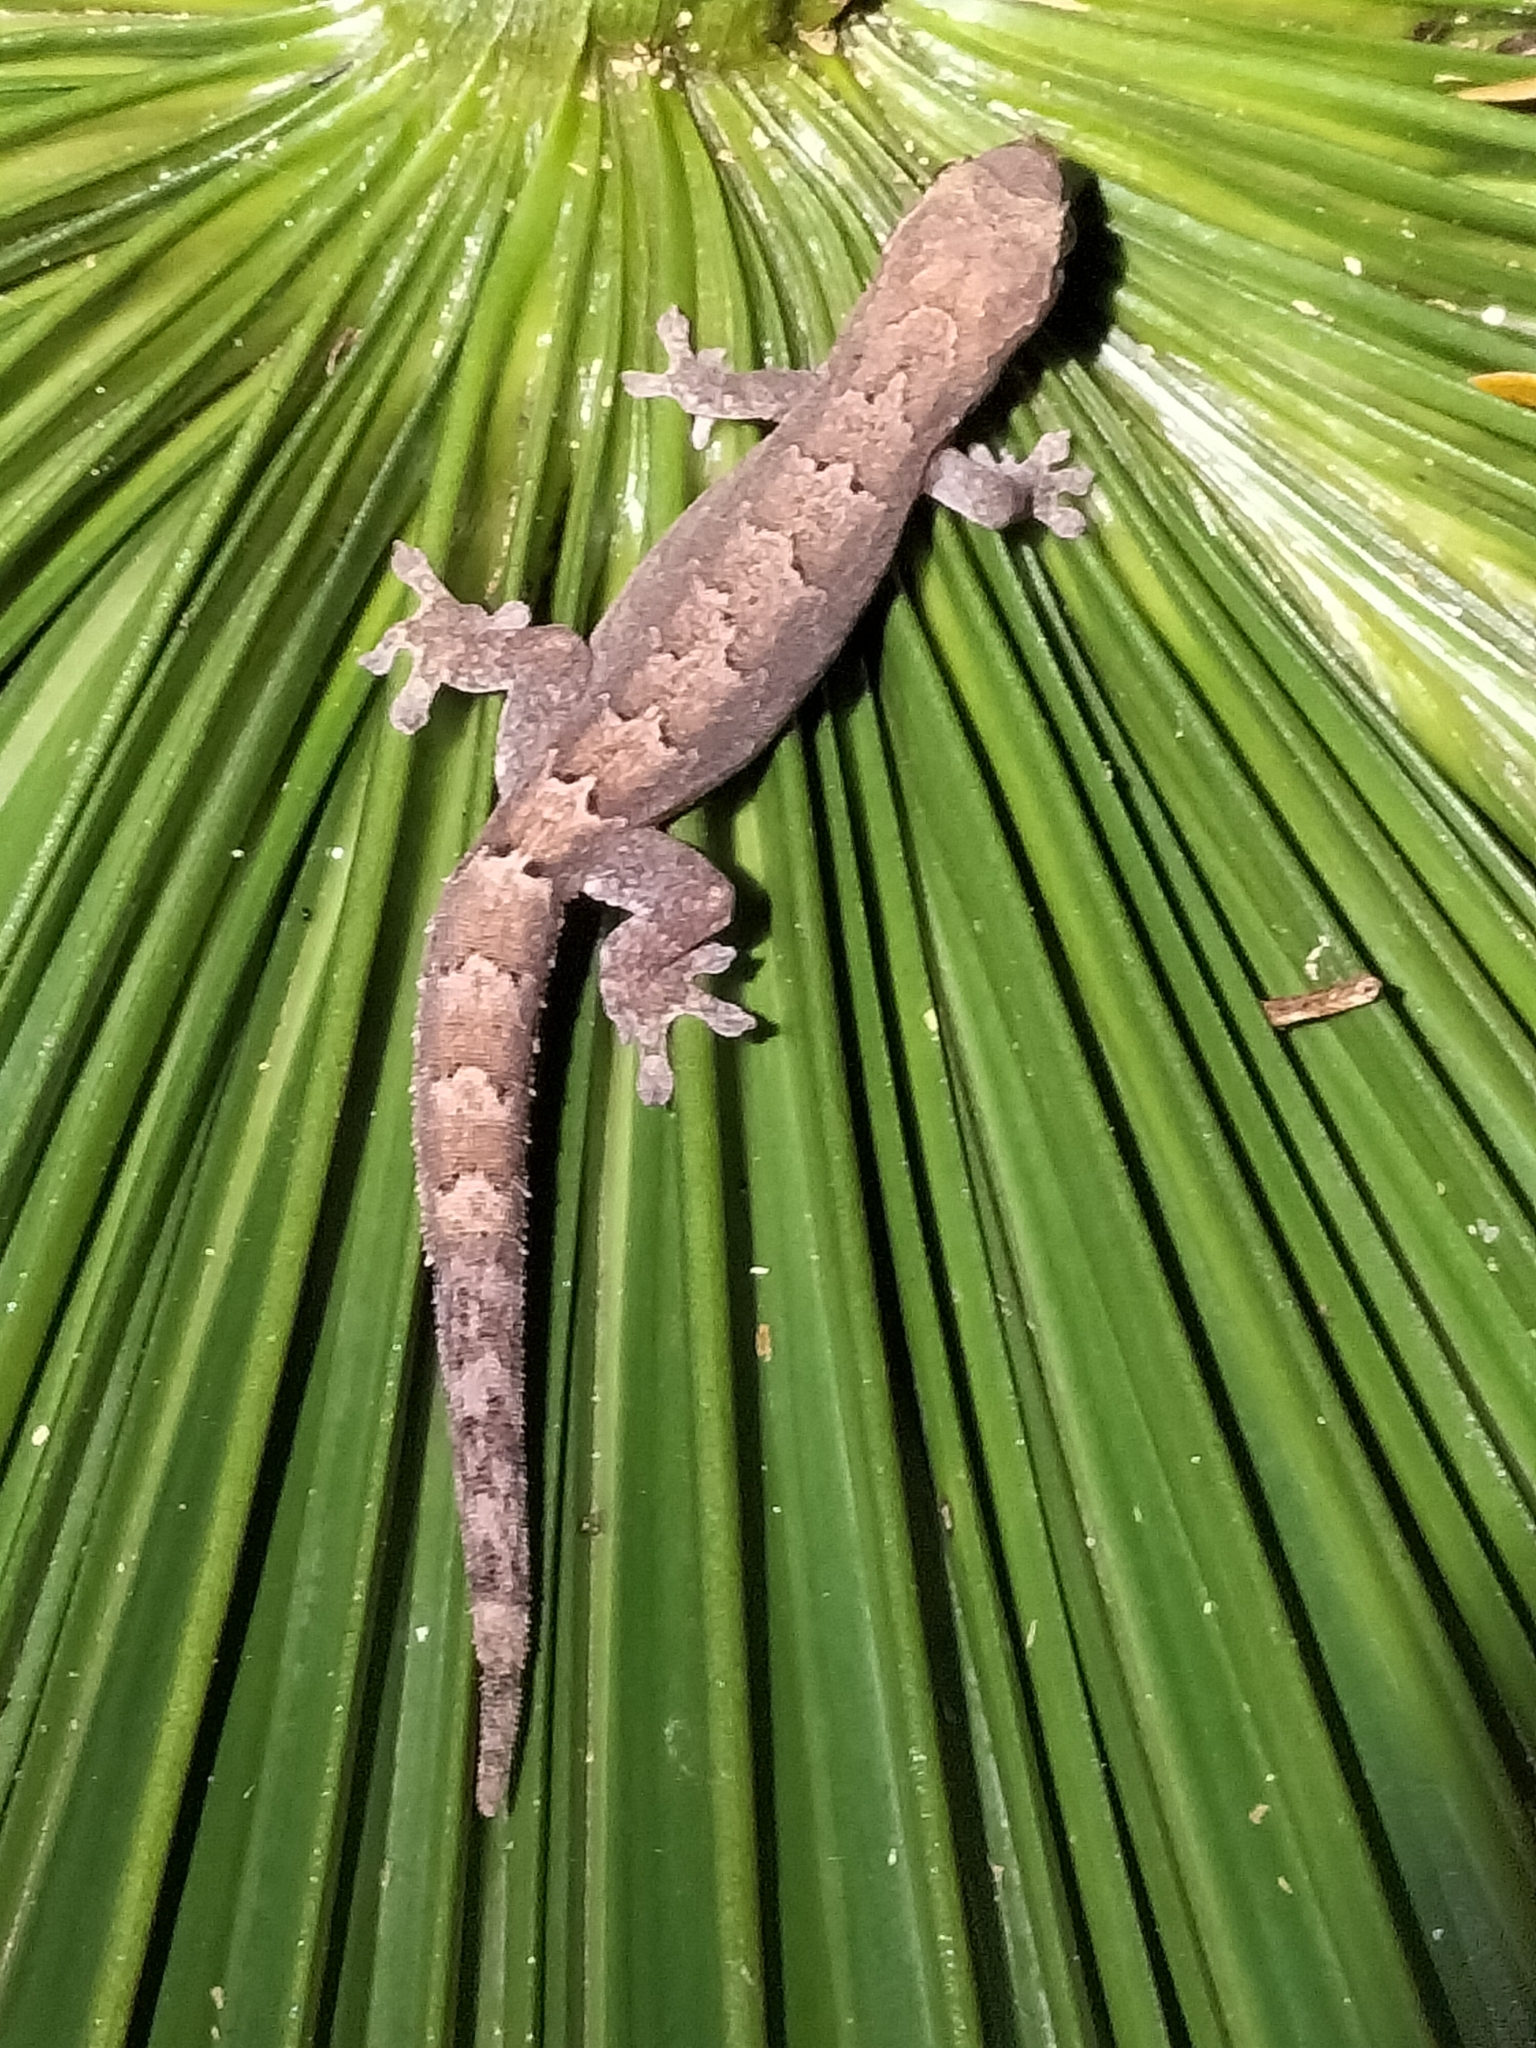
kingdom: Animalia
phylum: Chordata
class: Squamata
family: Gekkonidae
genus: Lepidodactylus
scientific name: Lepidodactylus lugubris
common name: Mourning gecko
